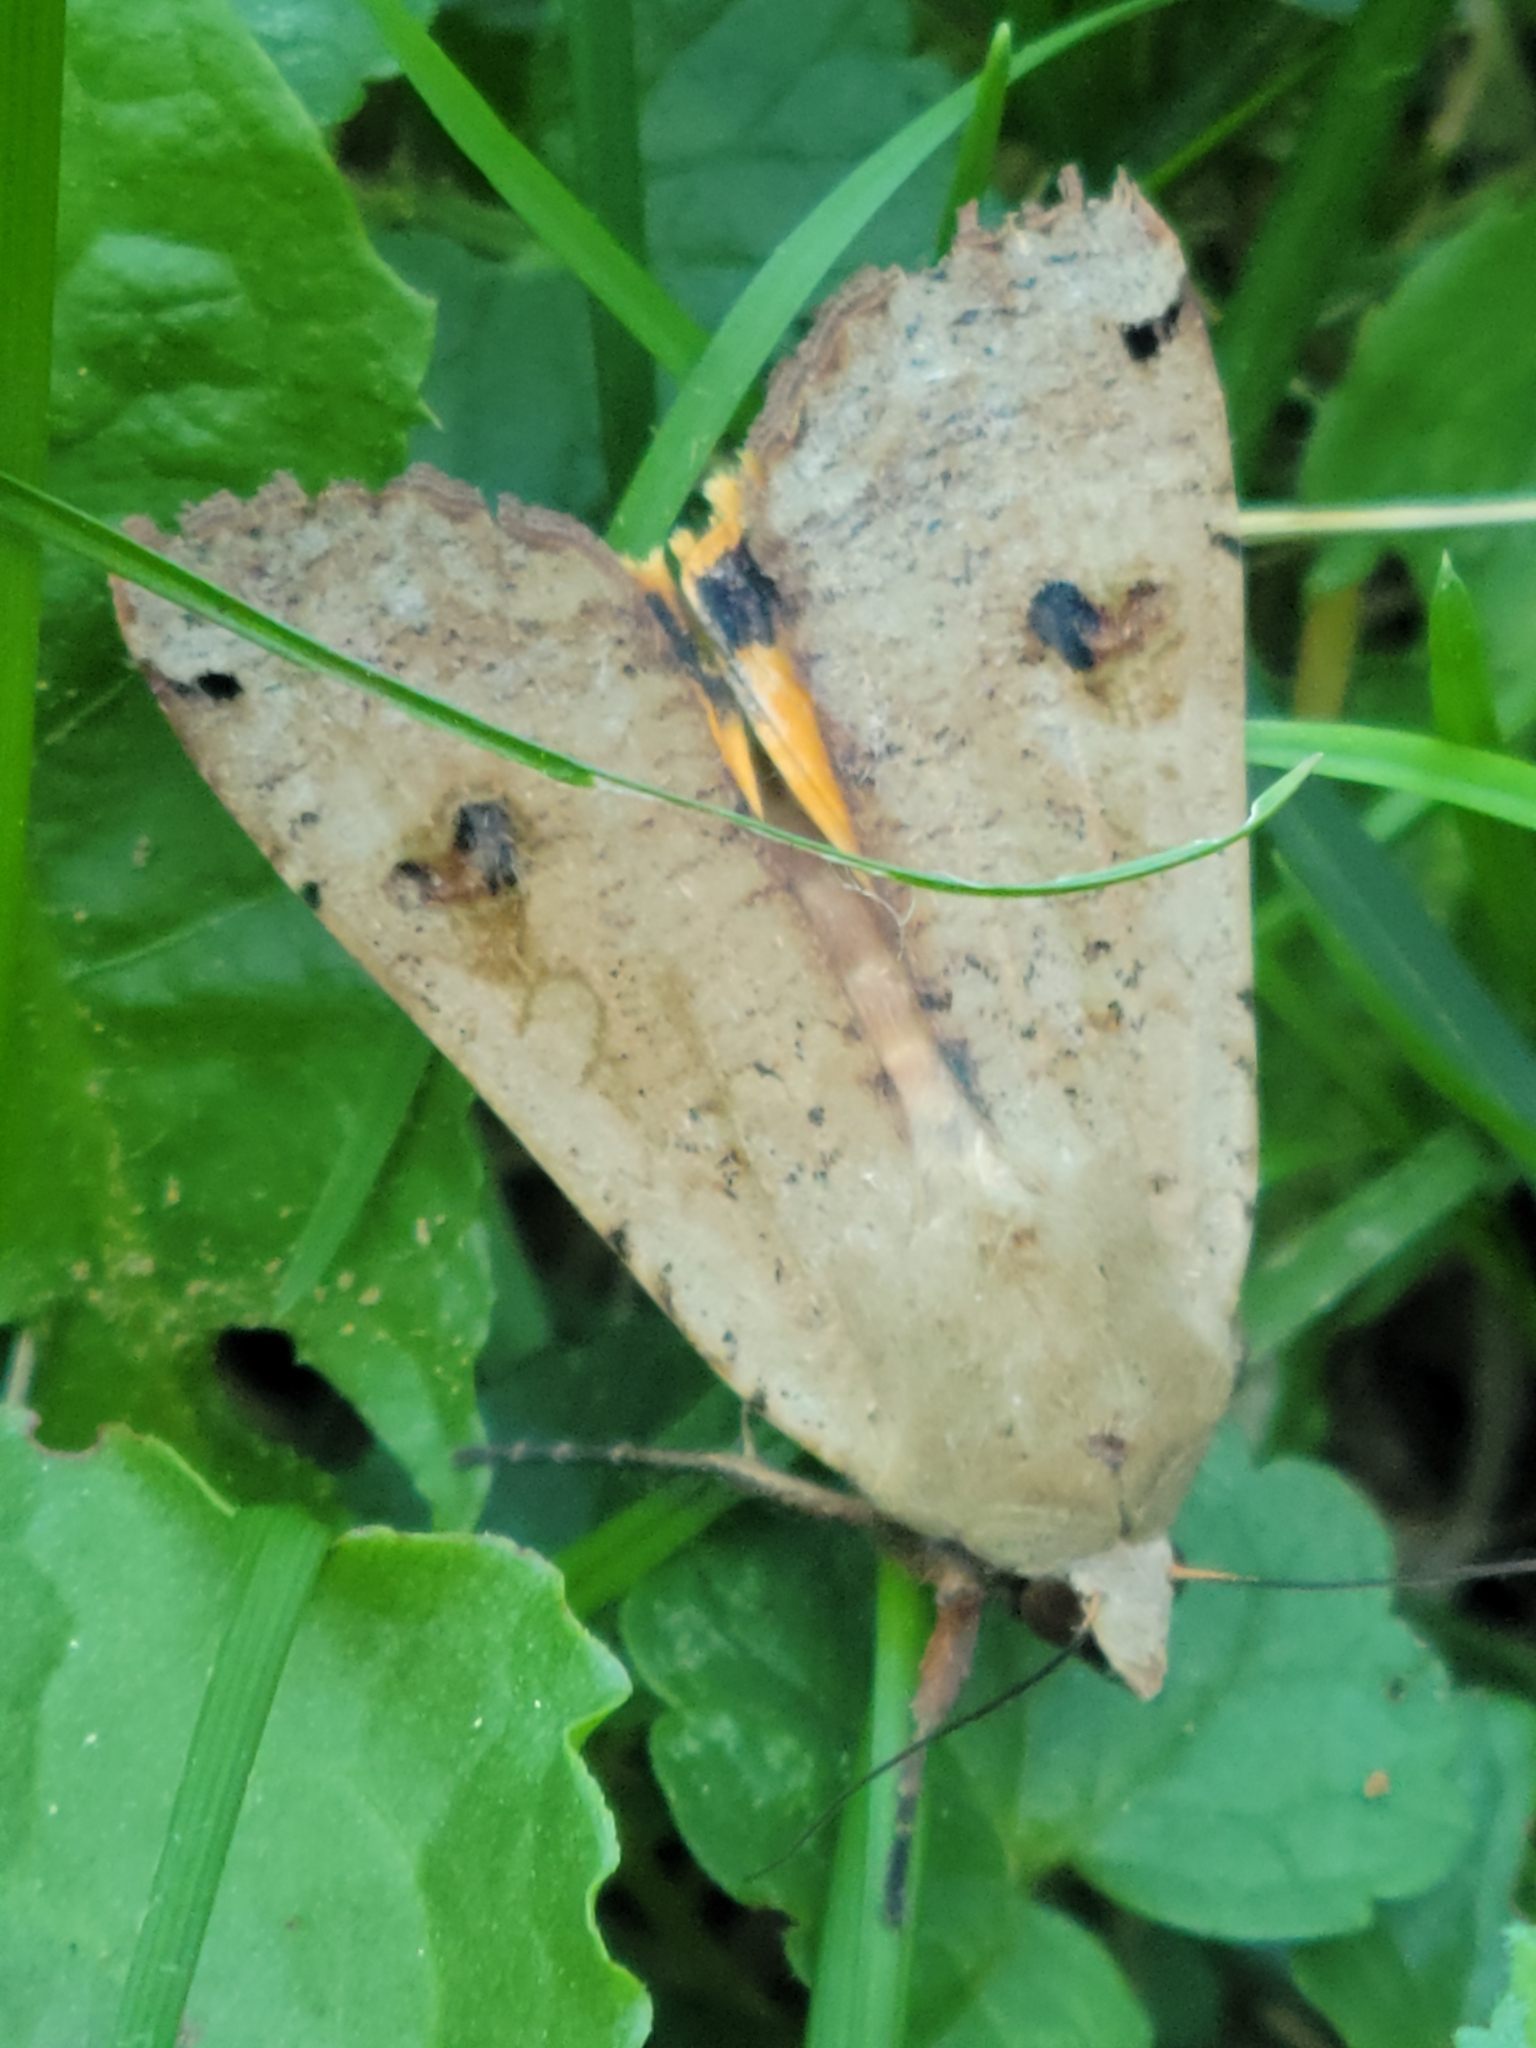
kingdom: Animalia
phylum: Arthropoda
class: Insecta
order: Lepidoptera
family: Noctuidae
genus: Noctua
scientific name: Noctua pronuba
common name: Large yellow underwing
